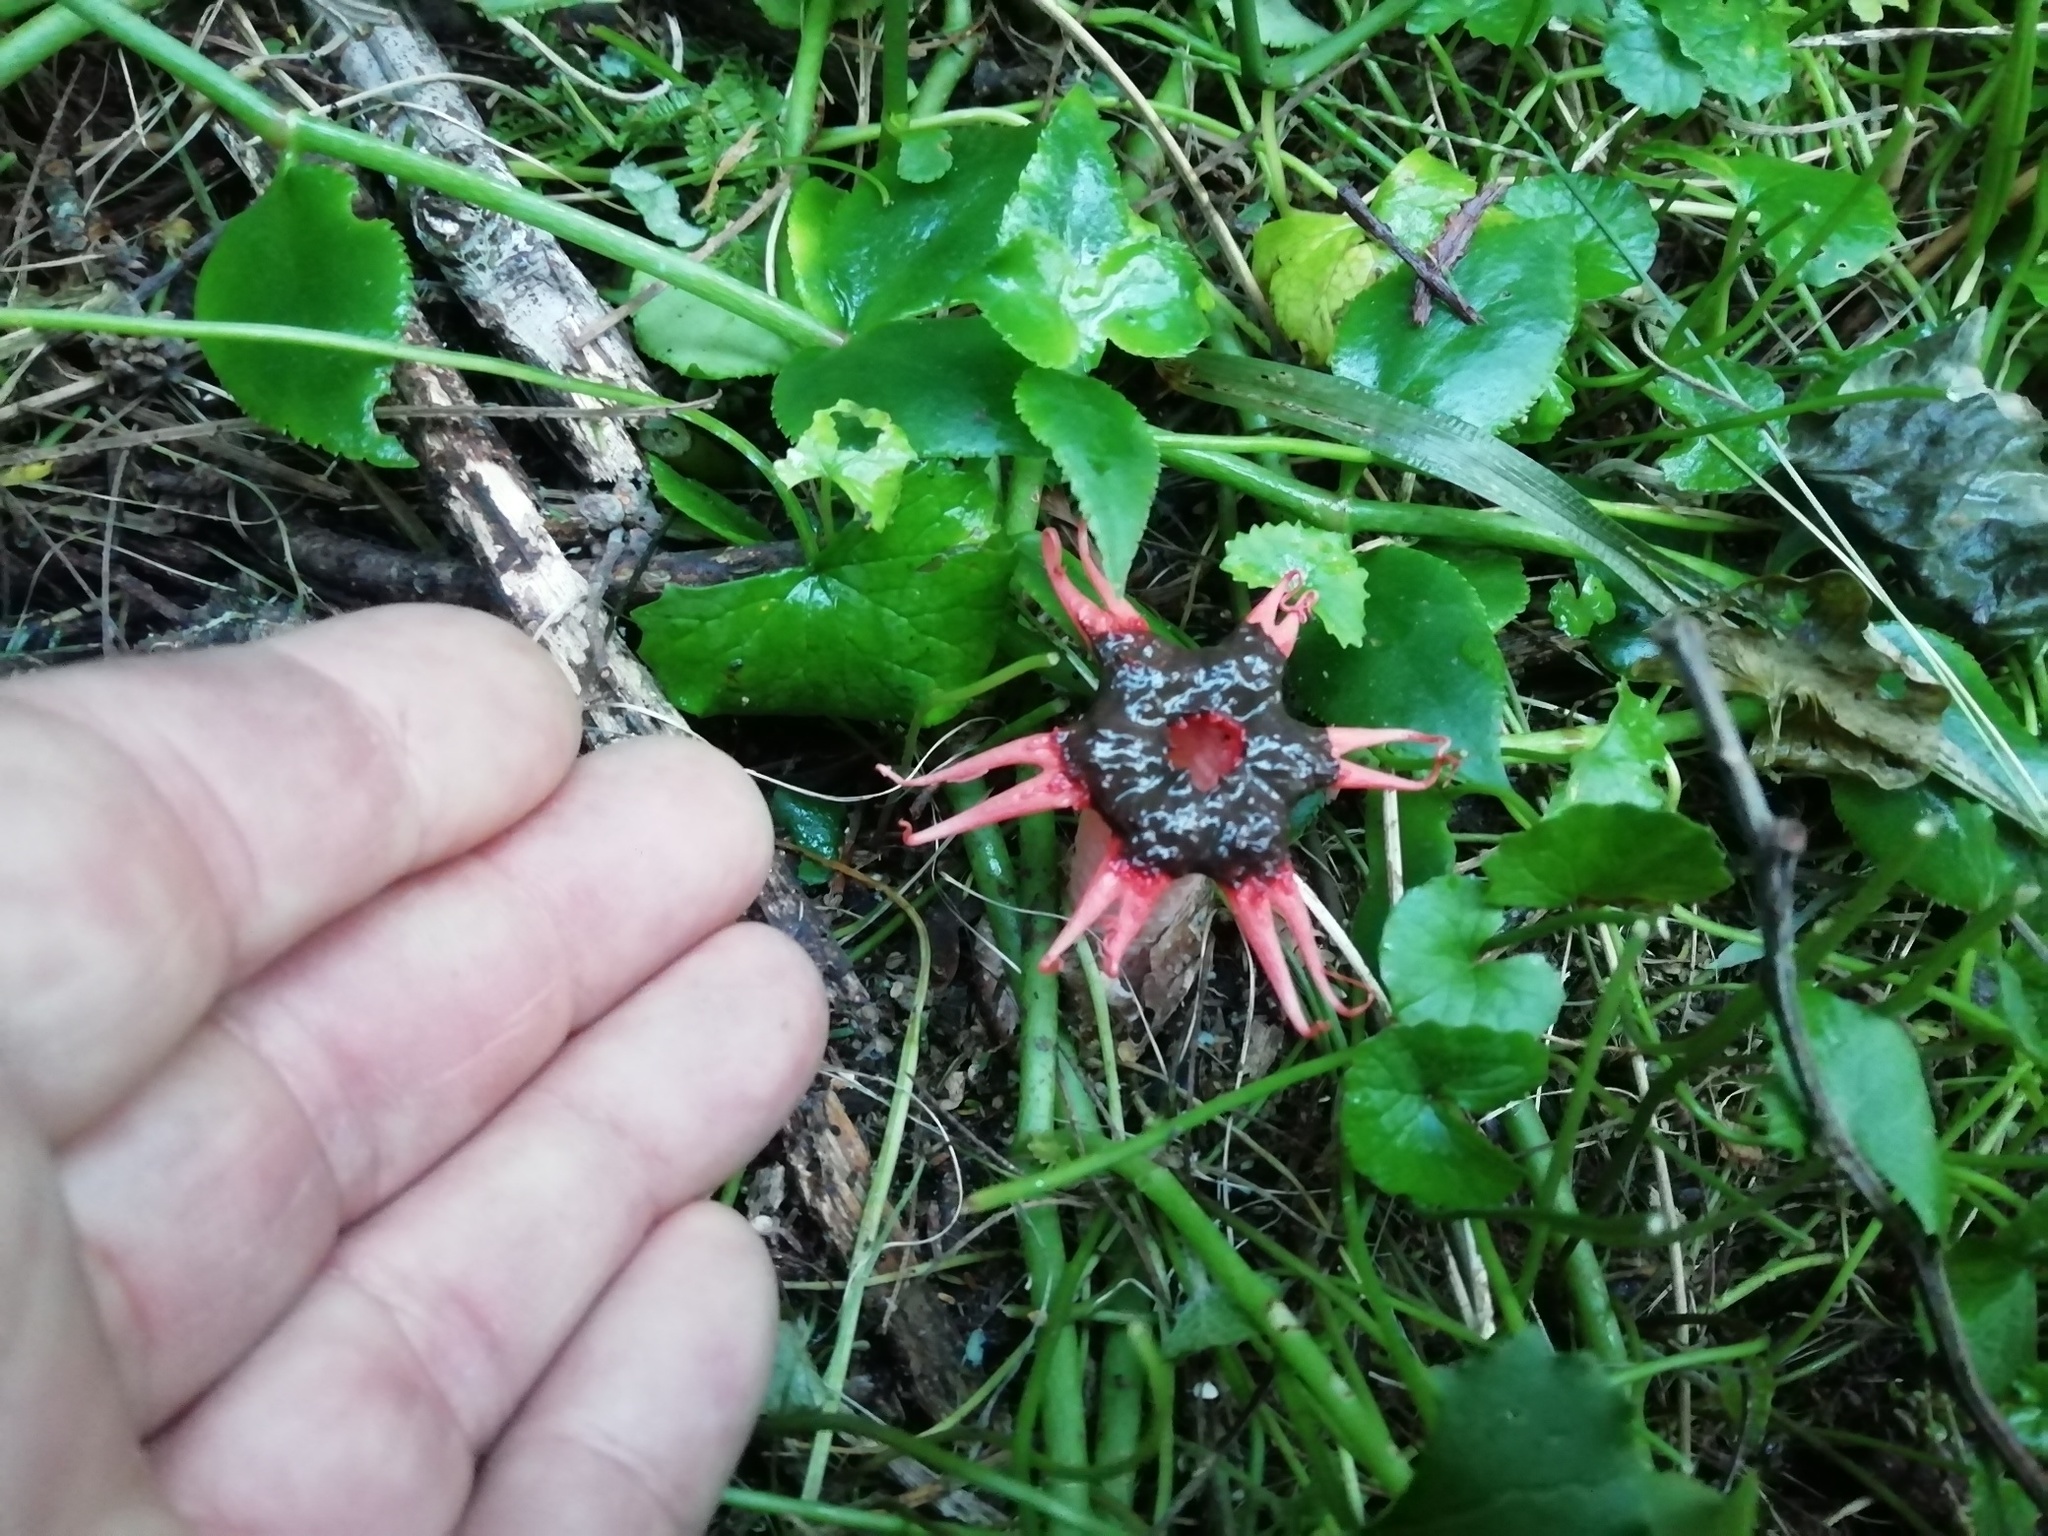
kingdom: Fungi
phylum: Basidiomycota
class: Agaricomycetes
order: Phallales
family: Phallaceae
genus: Aseroe
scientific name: Aseroe rubra
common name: Starfish fungus
